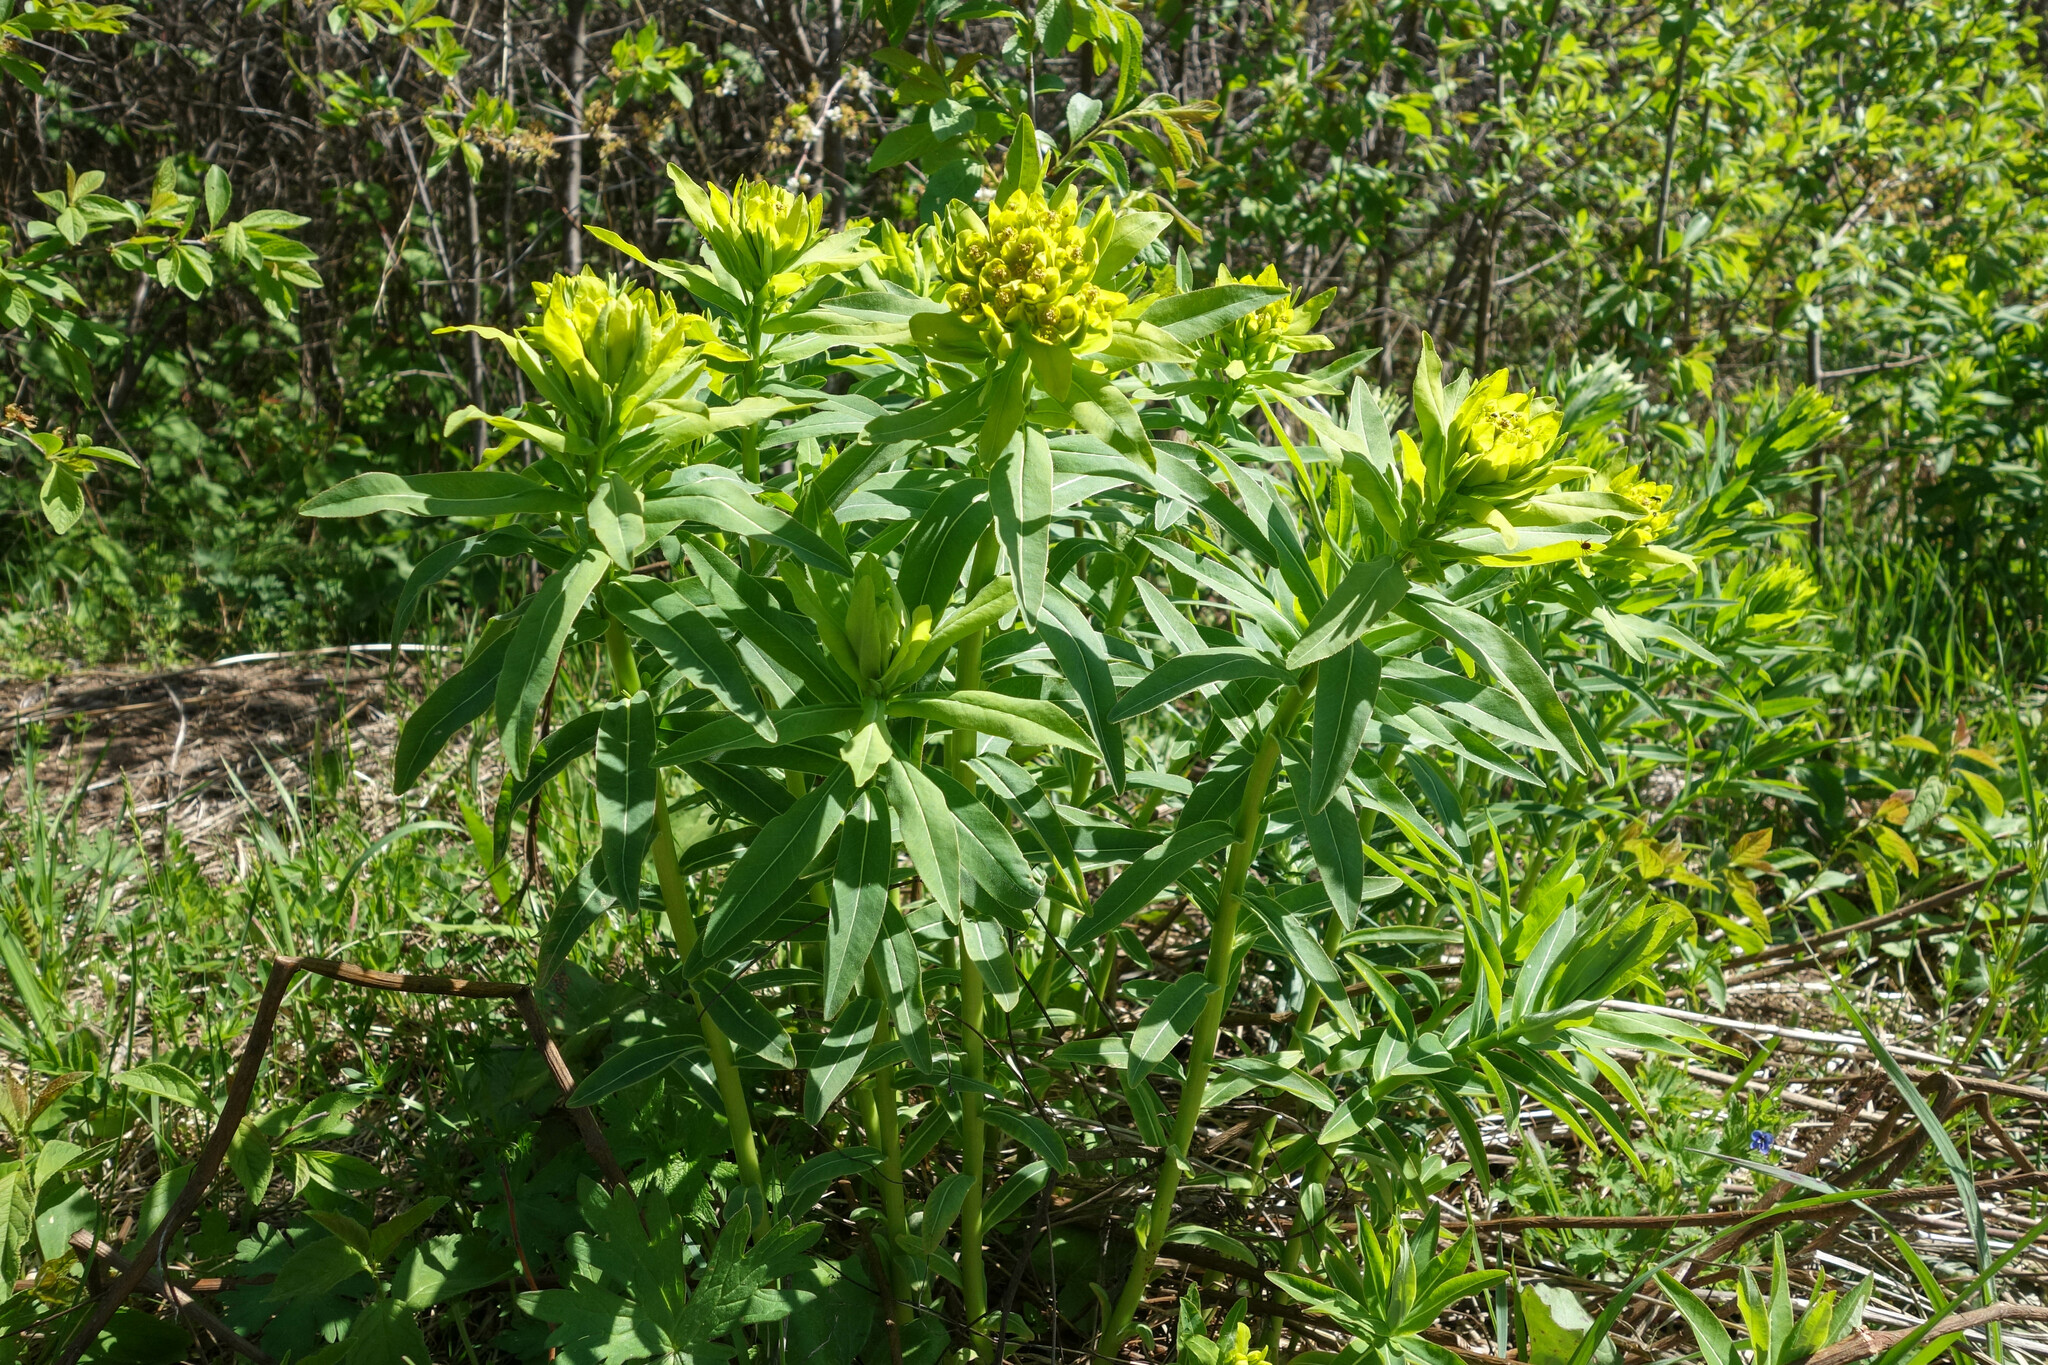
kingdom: Plantae
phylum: Tracheophyta
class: Magnoliopsida
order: Malpighiales
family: Euphorbiaceae
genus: Euphorbia
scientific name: Euphorbia semivillosa
